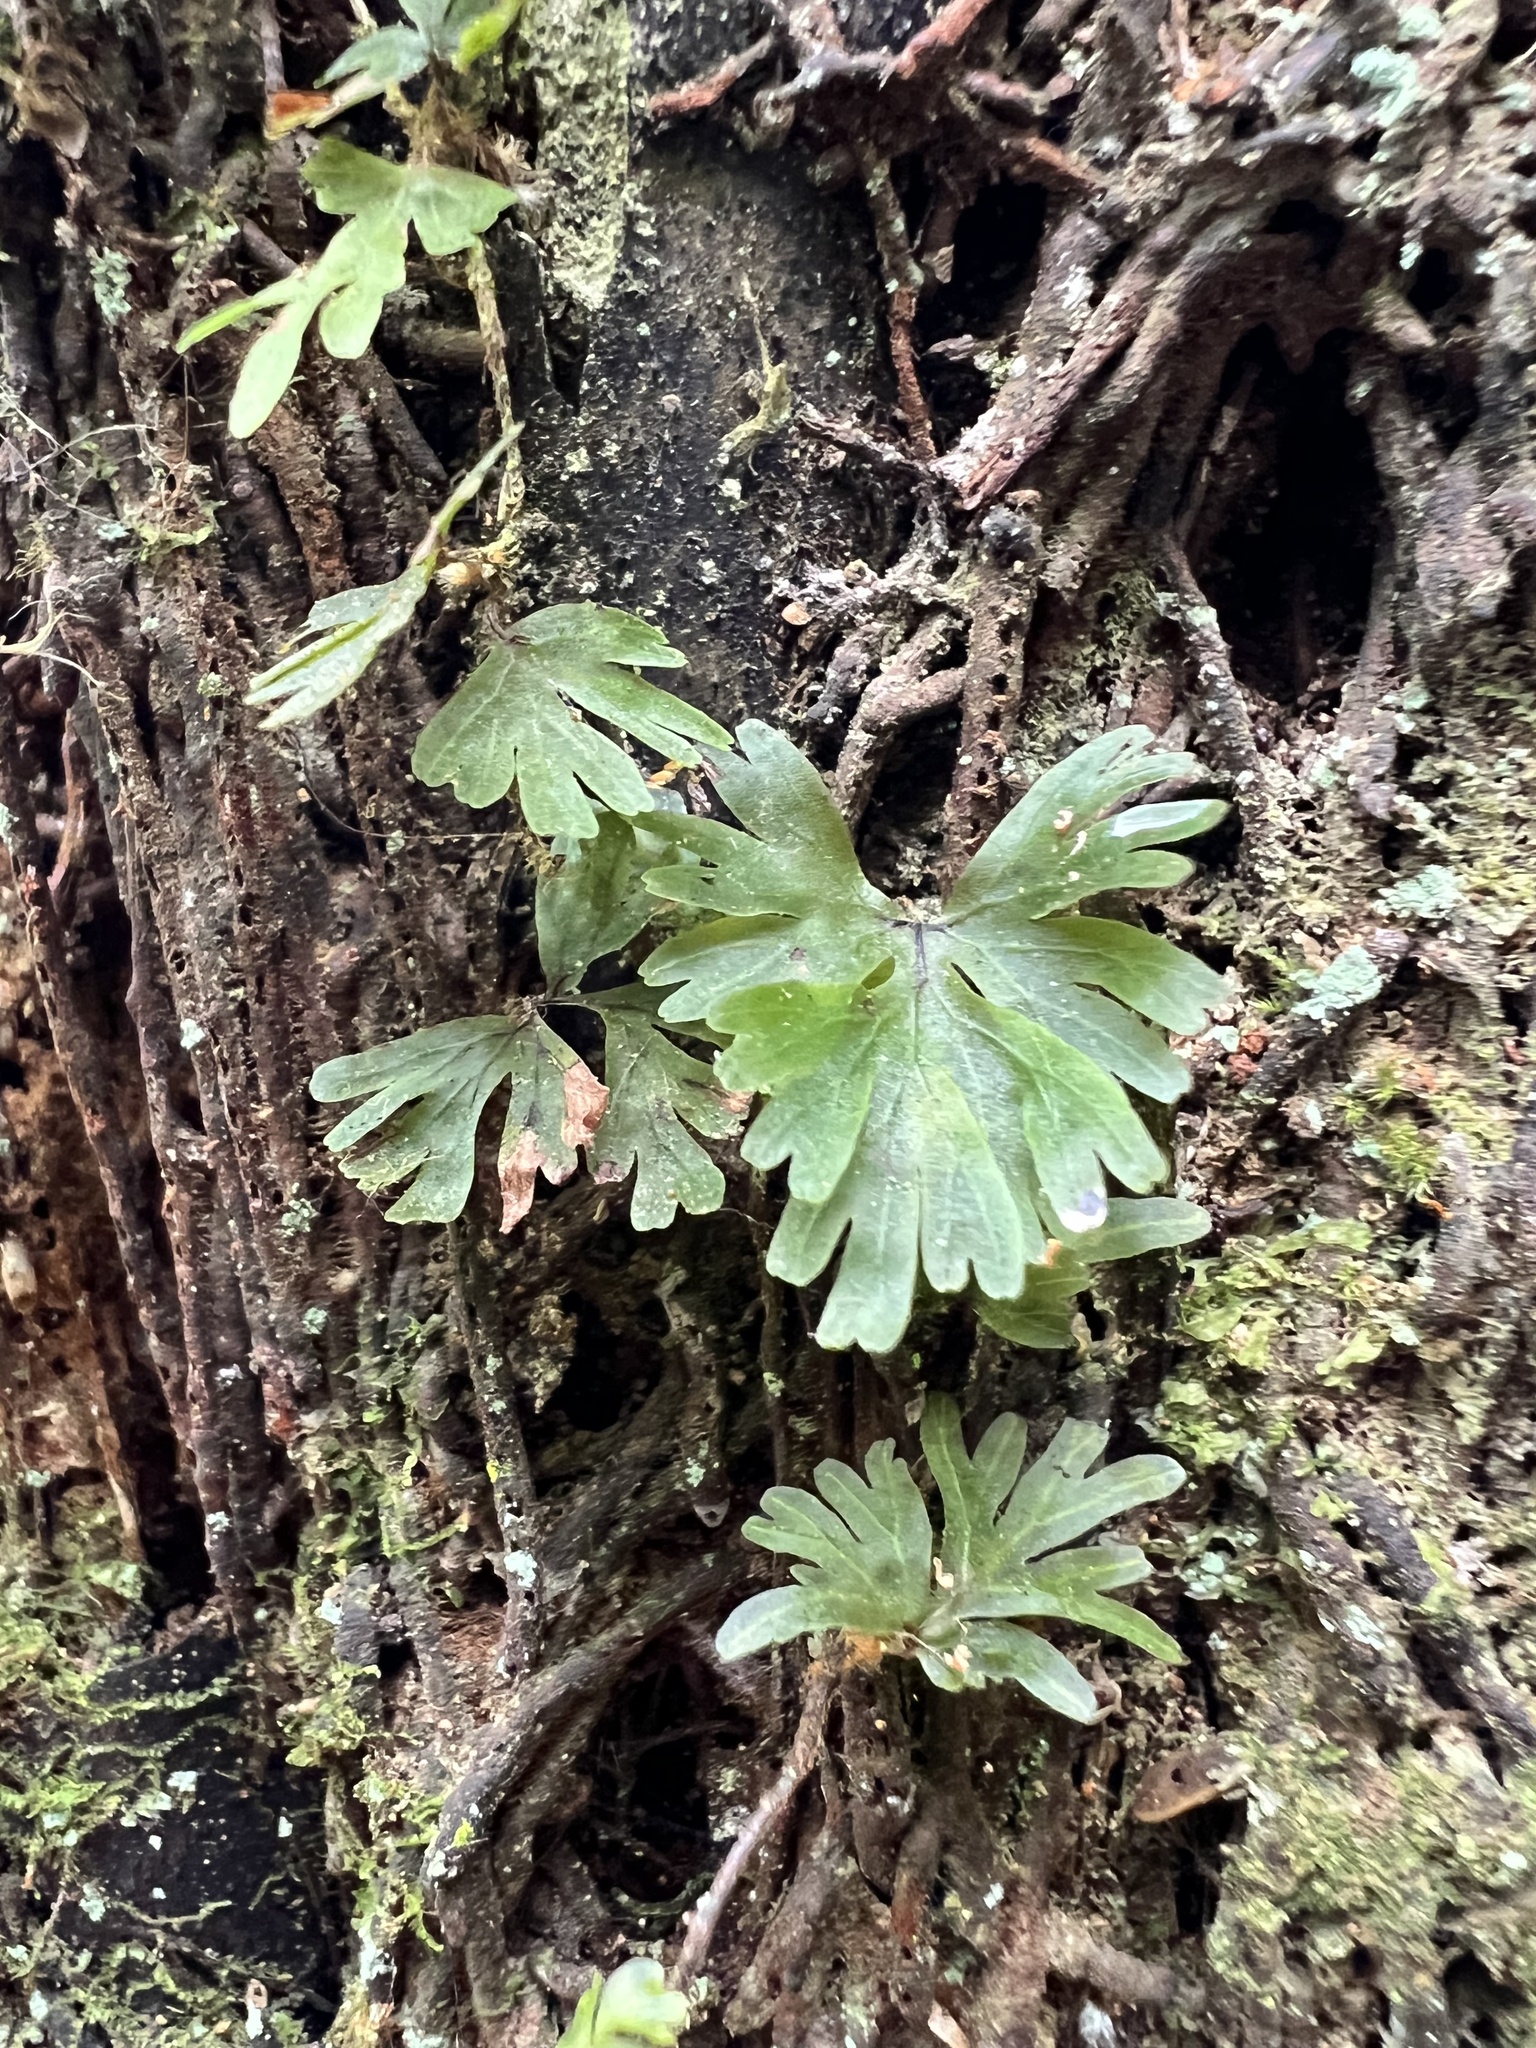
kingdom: Plantae
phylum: Tracheophyta
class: Polypodiopsida
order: Hymenophyllales
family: Hymenophyllaceae
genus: Hymenophyllum
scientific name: Hymenophyllum flabellatum
